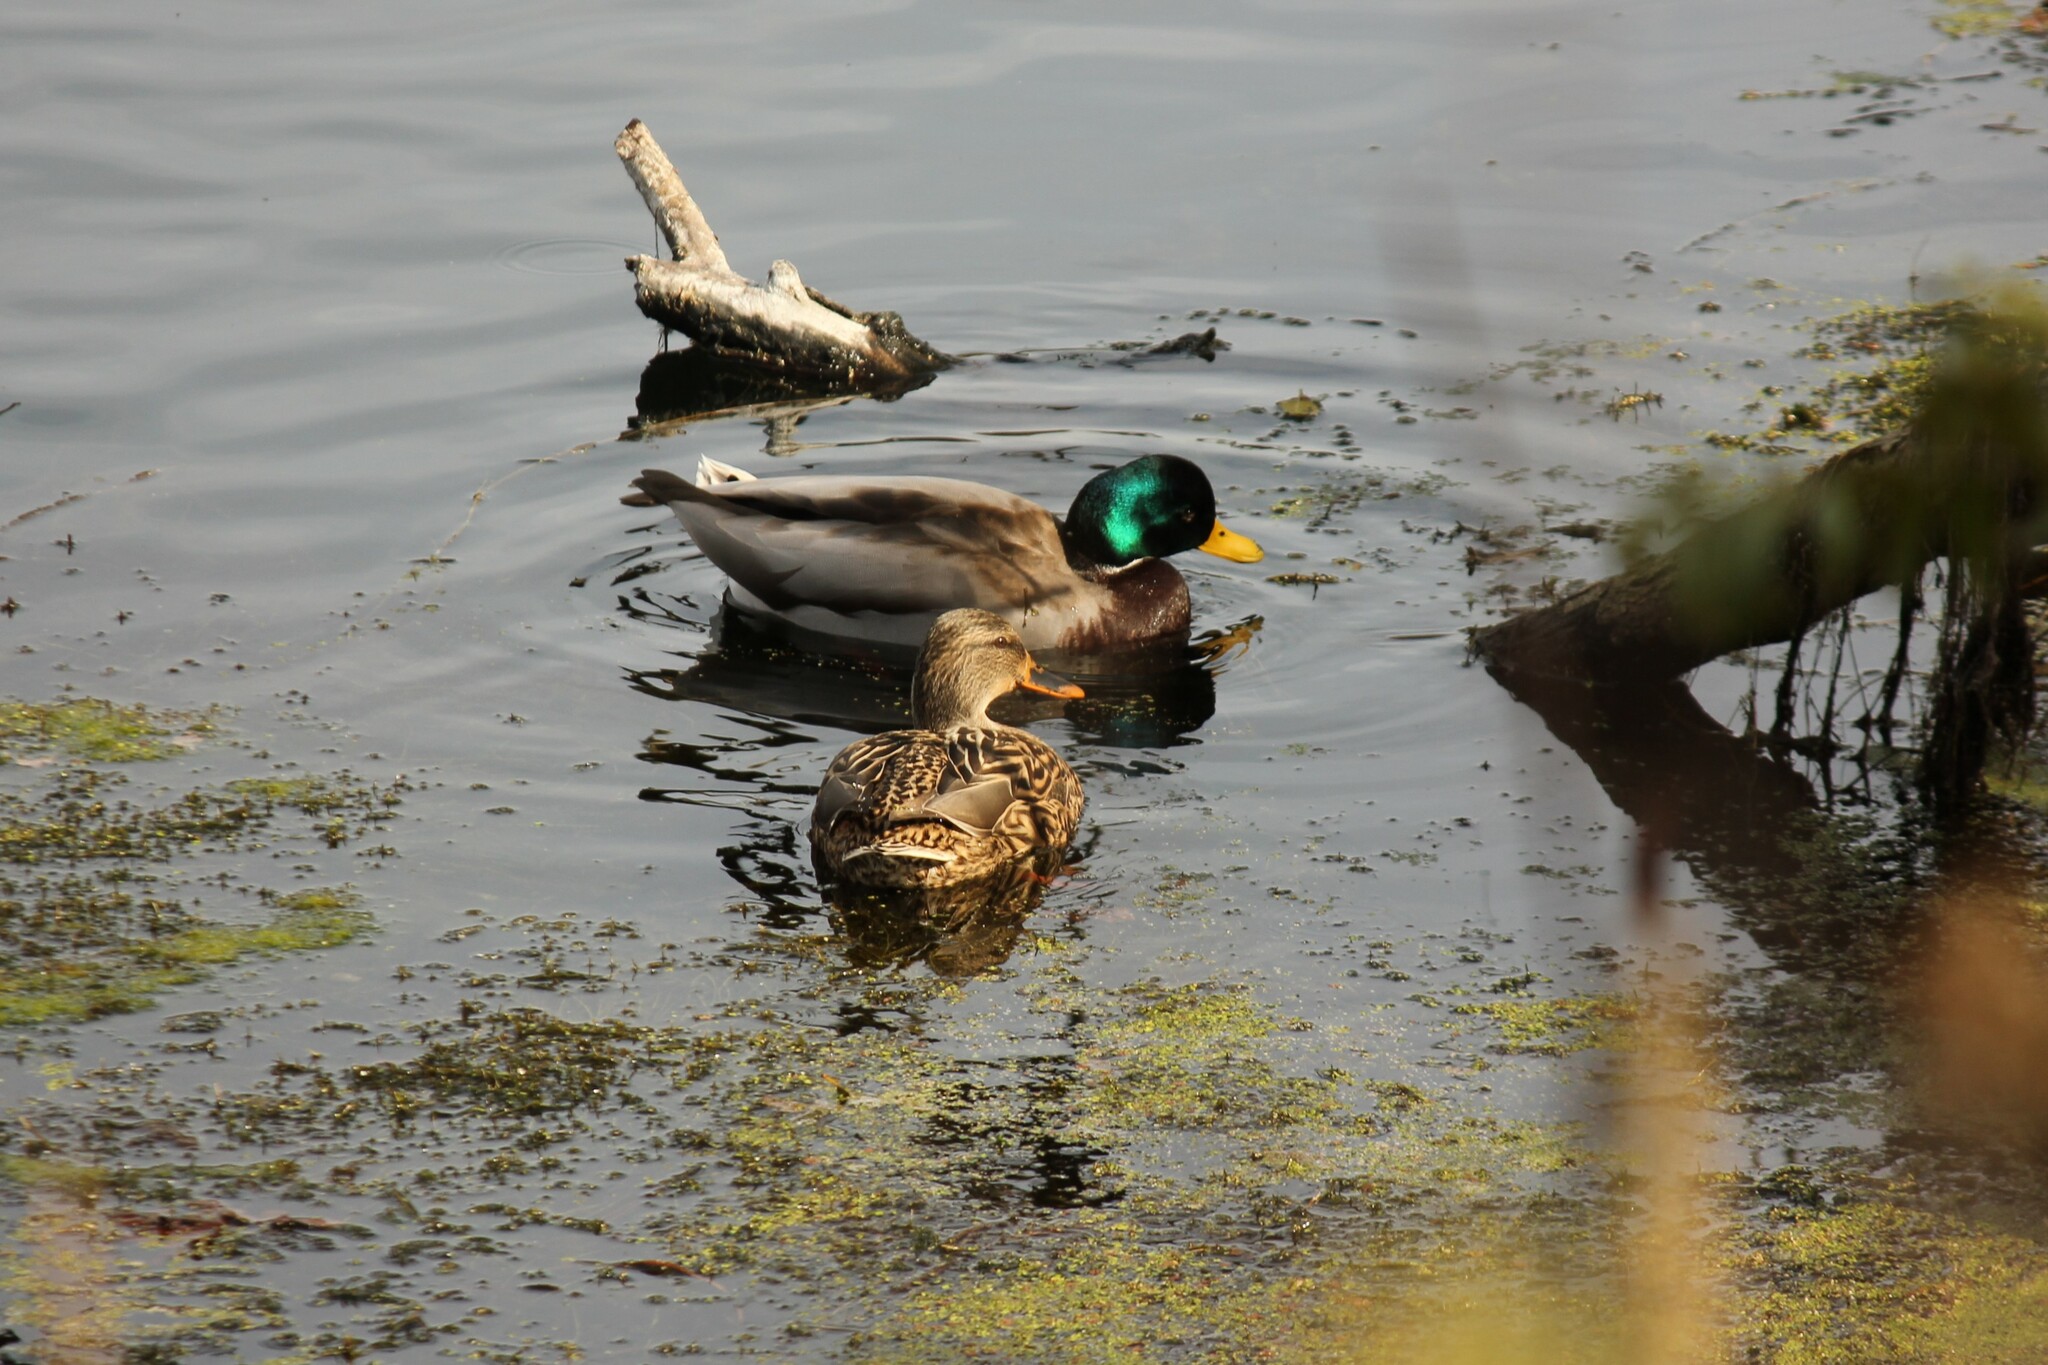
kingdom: Animalia
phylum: Chordata
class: Aves
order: Anseriformes
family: Anatidae
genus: Anas
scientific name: Anas platyrhynchos
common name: Mallard
